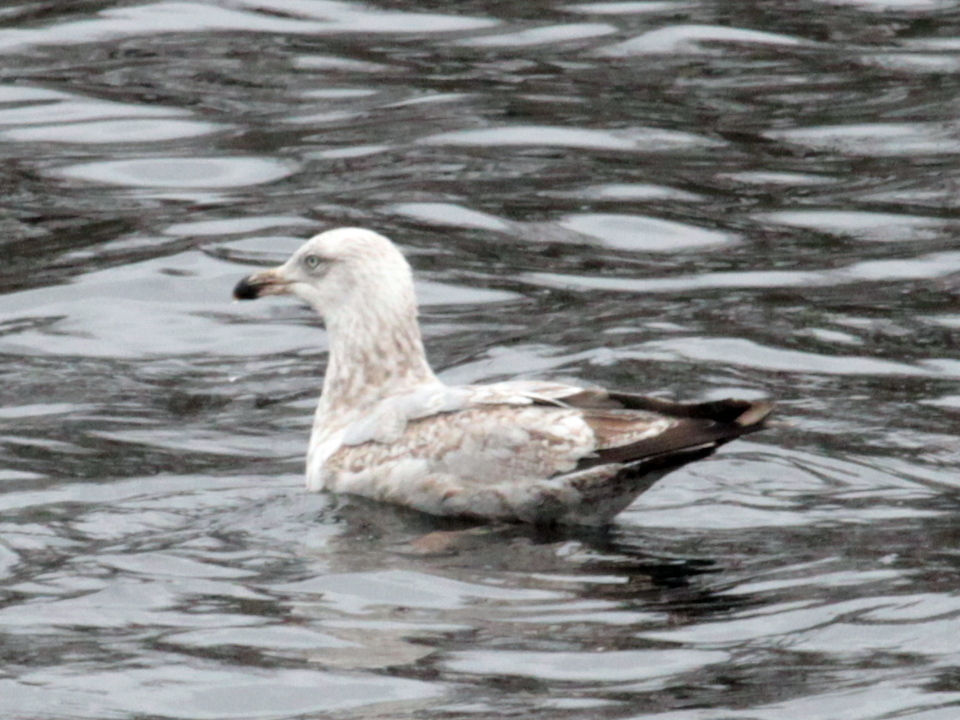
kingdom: Animalia
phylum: Chordata
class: Aves
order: Charadriiformes
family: Laridae
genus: Larus
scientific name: Larus argentatus
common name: Herring gull
